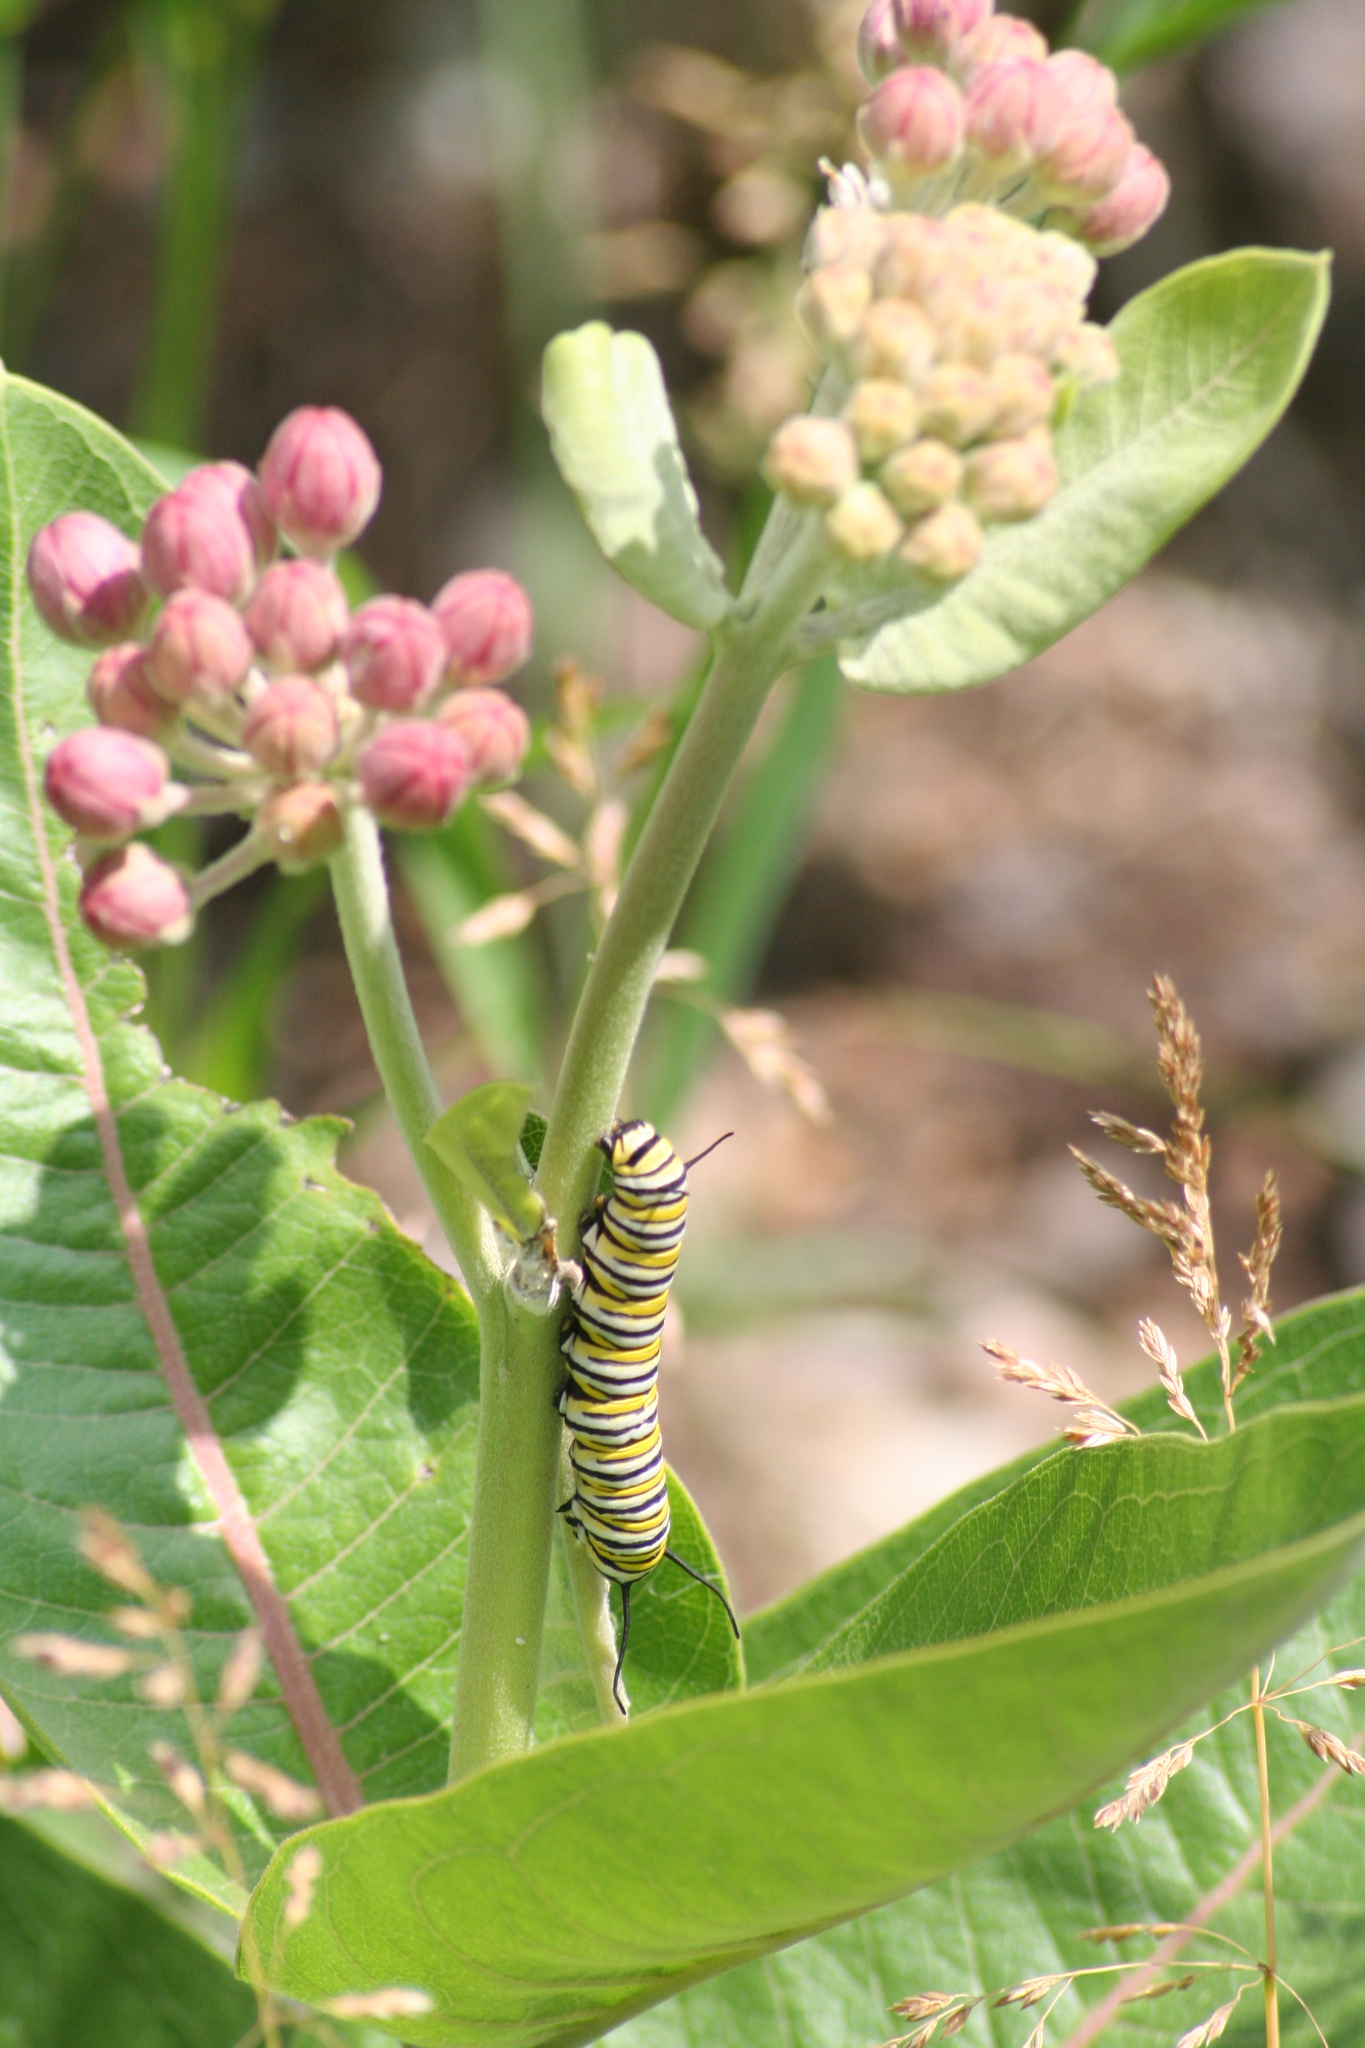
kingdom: Animalia
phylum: Arthropoda
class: Insecta
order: Lepidoptera
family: Nymphalidae
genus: Danaus
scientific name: Danaus plexippus
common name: Monarch
